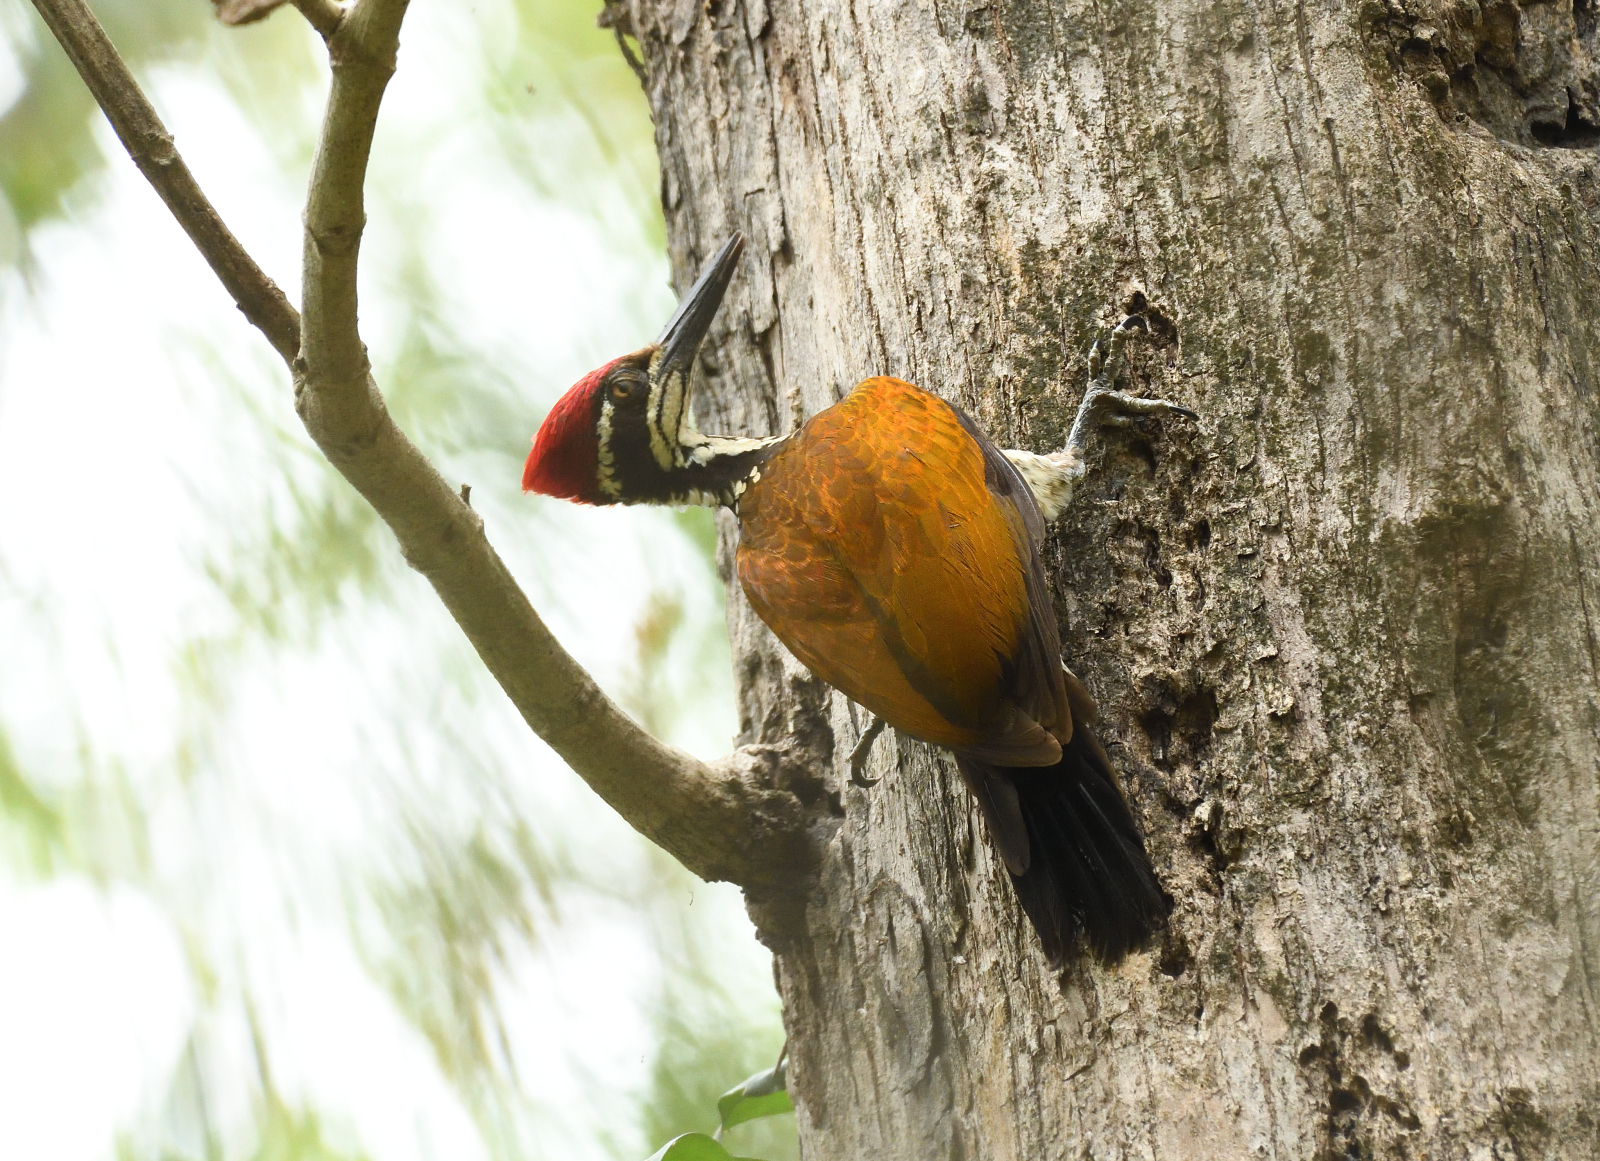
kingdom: Animalia
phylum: Chordata
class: Aves
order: Piciformes
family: Picidae
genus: Chrysocolaptes
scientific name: Chrysocolaptes socialis
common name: Malabar flameback
